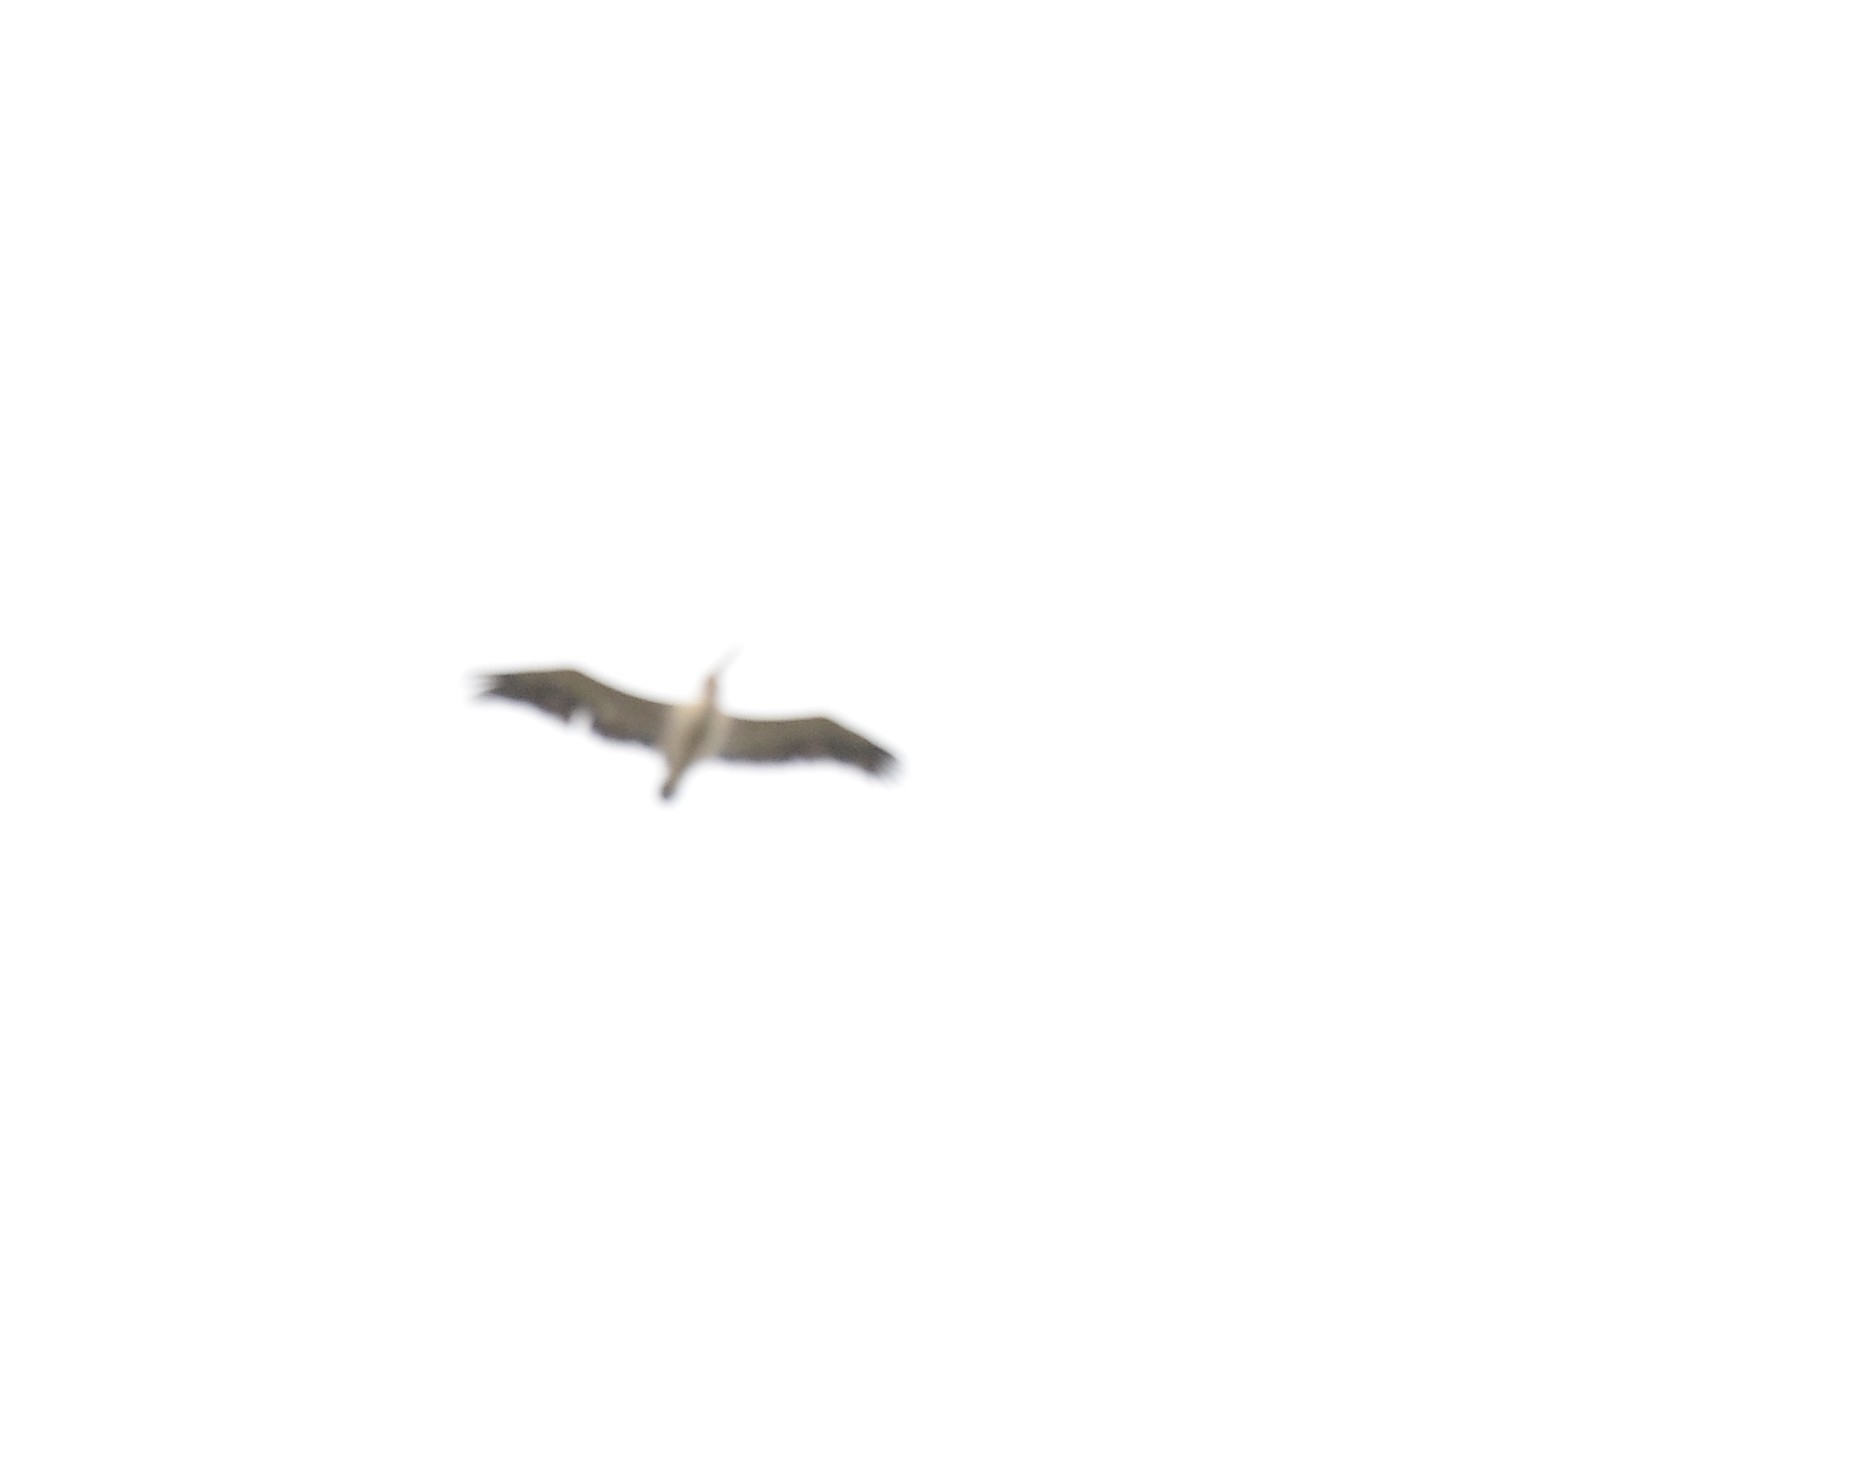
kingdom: Animalia
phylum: Chordata
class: Aves
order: Pelecaniformes
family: Pelecanidae
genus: Pelecanus
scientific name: Pelecanus philippensis
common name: Spot-billed pelican
